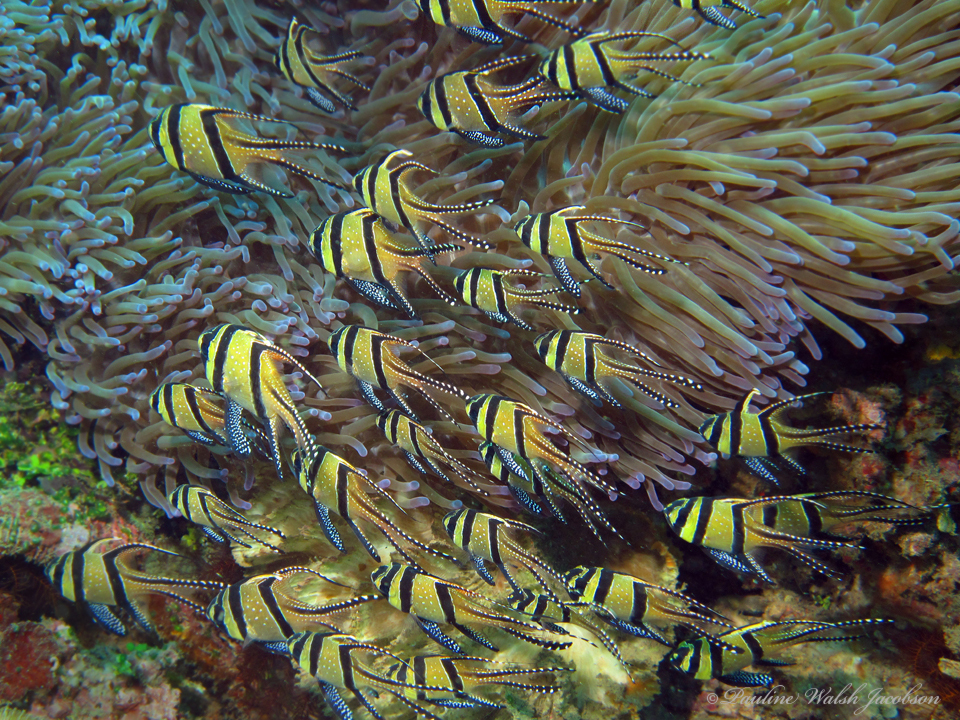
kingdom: Animalia
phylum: Chordata
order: Perciformes
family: Apogonidae
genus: Pterapogon
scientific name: Pterapogon kauderni
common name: Banggai cardinalfish
